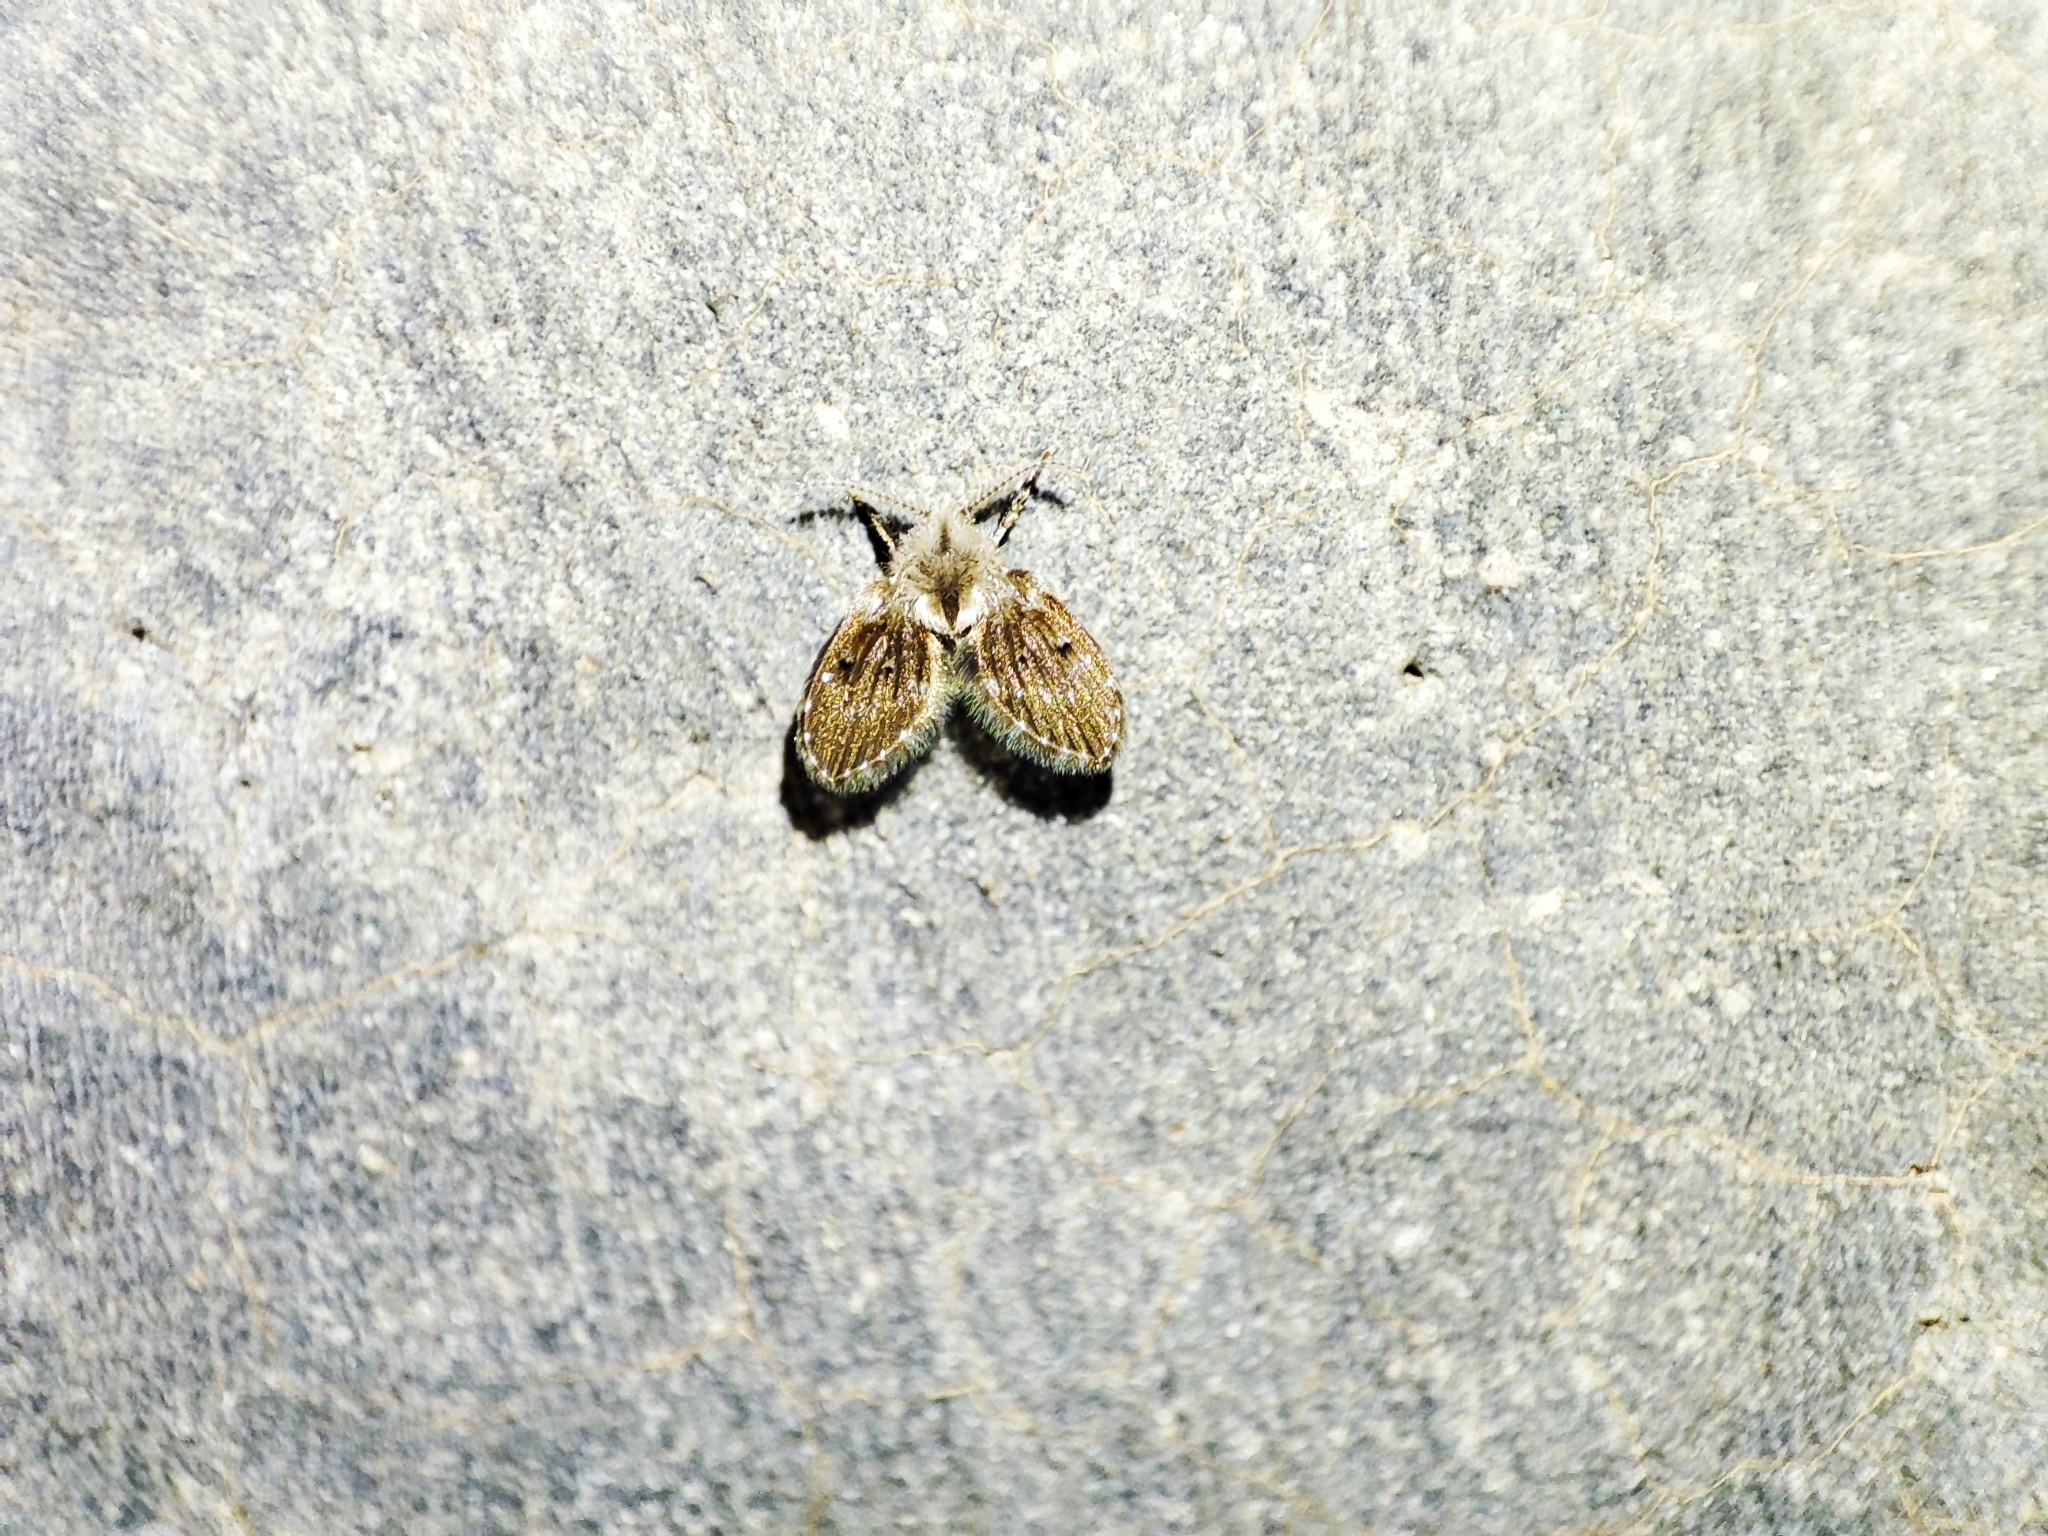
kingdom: Animalia
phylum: Arthropoda
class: Insecta
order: Diptera
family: Psychodidae
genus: Clogmia
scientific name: Clogmia albipunctatus
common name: White-spotted moth fly
